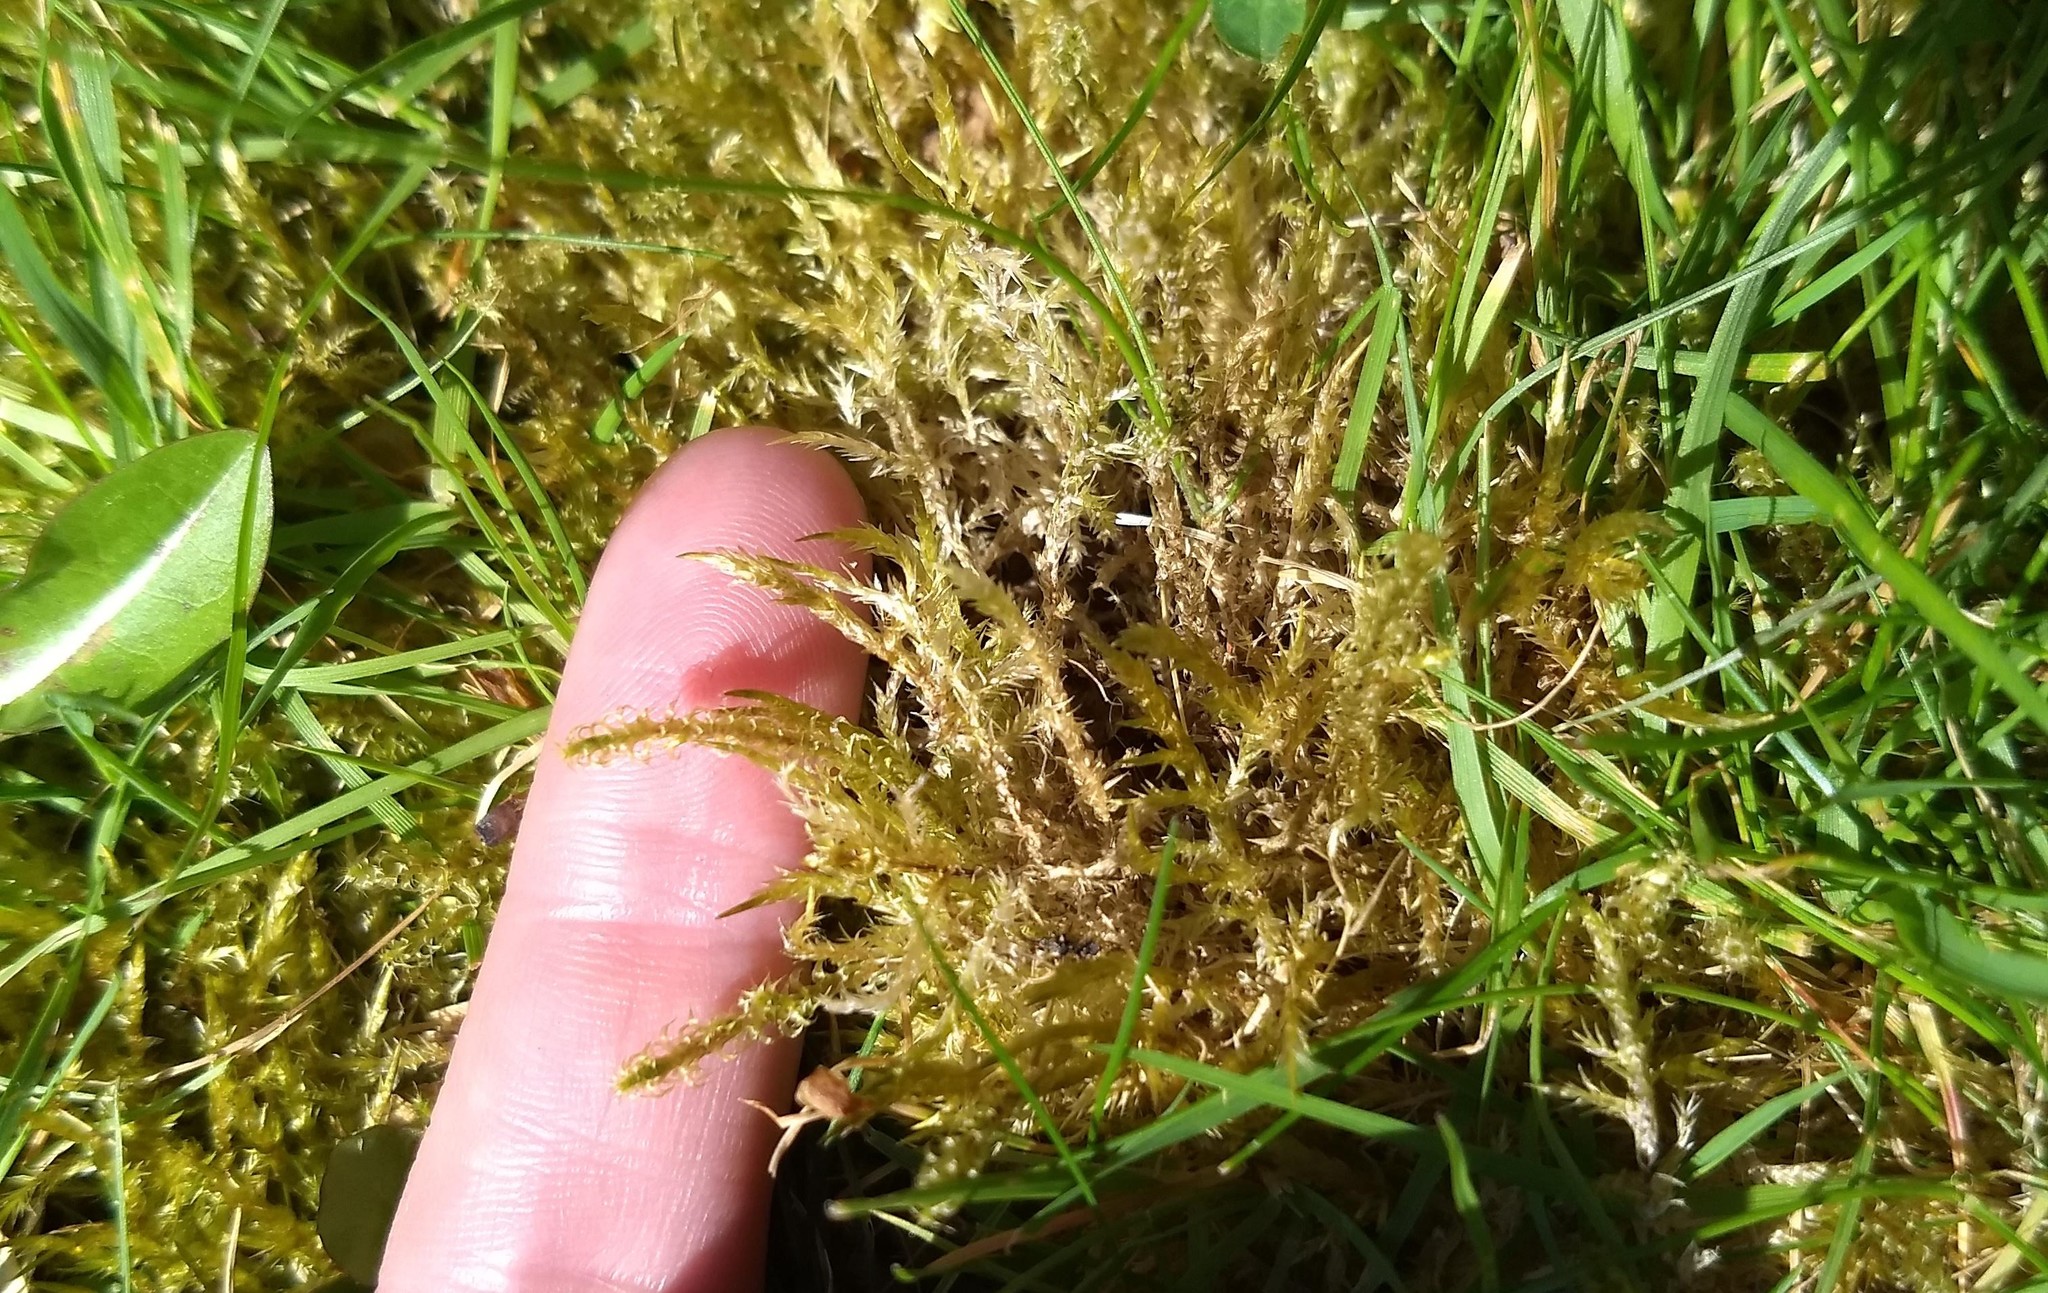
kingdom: Plantae
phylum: Bryophyta
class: Bryopsida
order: Hypnales
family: Hylocomiaceae
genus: Rhytidiadelphus
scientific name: Rhytidiadelphus squarrosus
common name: Springy turf-moss
